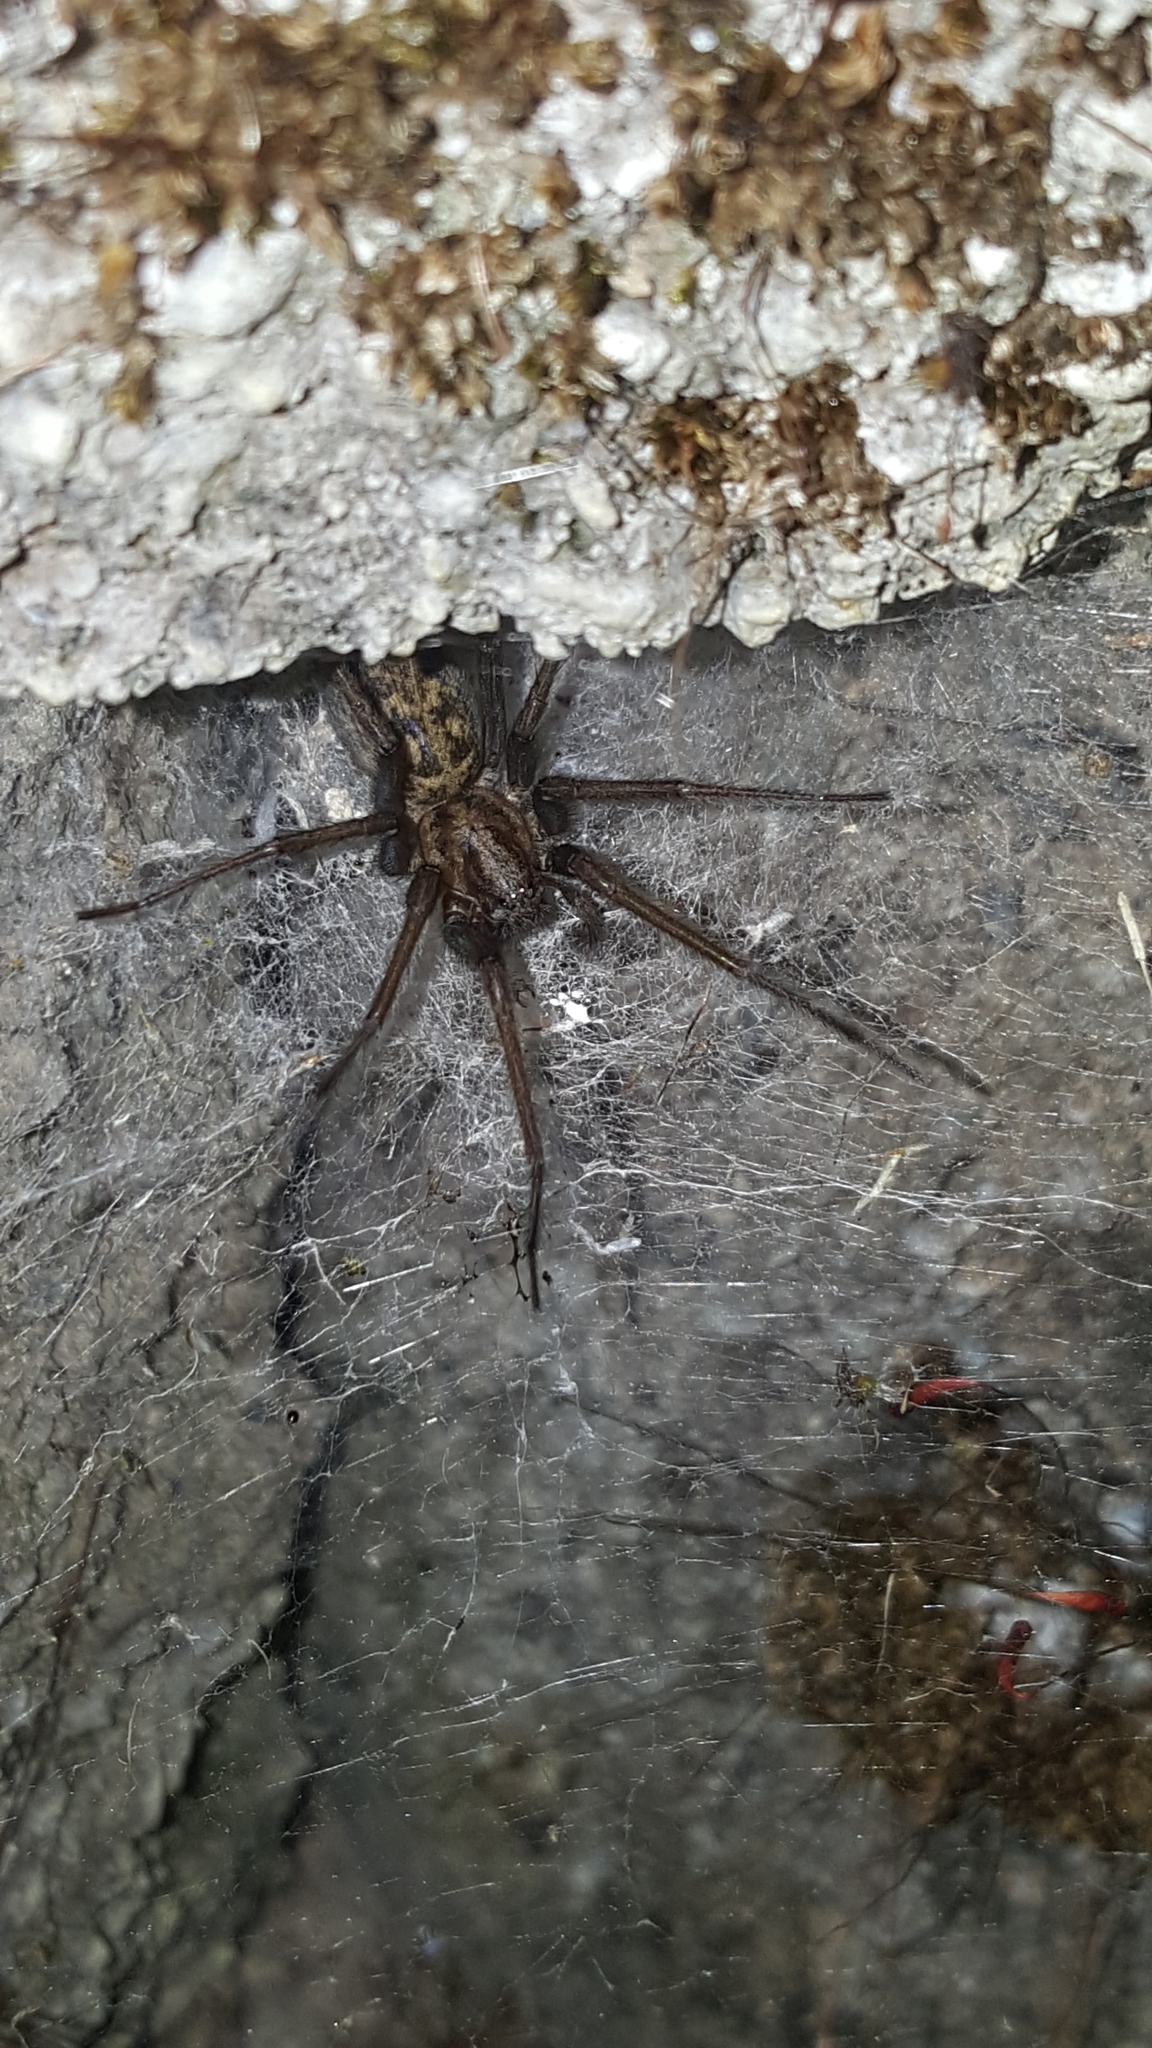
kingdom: Animalia
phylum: Arthropoda
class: Arachnida
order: Araneae
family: Agelenidae
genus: Eratigena
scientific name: Eratigena duellica
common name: Giant house spider
